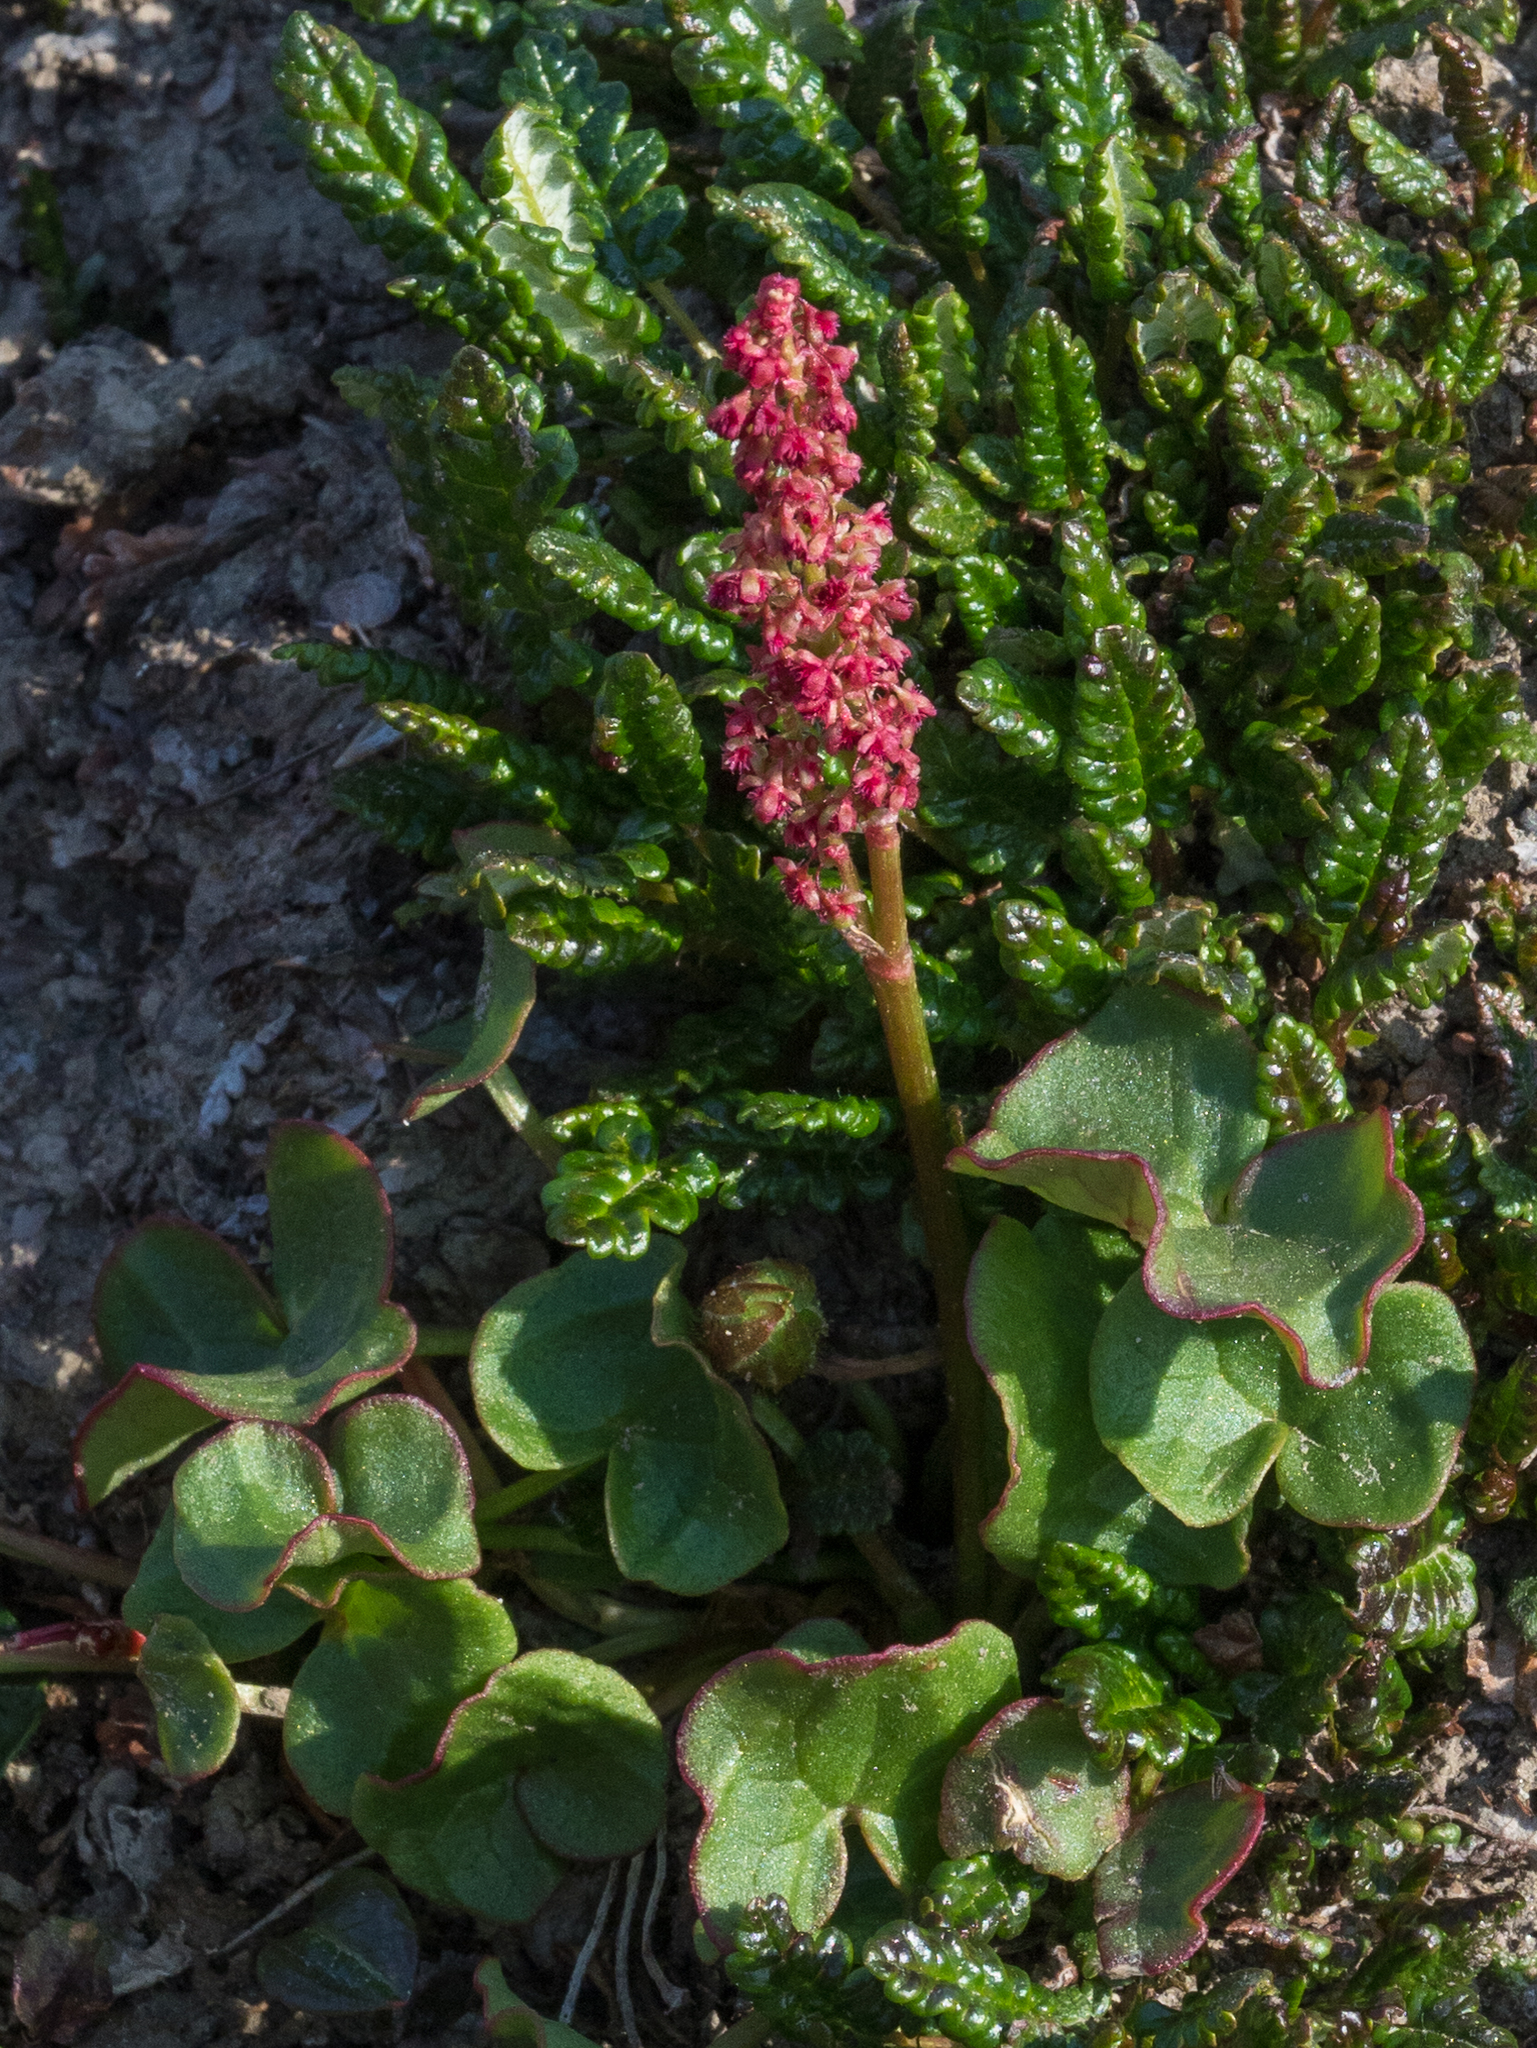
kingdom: Plantae
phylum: Tracheophyta
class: Magnoliopsida
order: Caryophyllales
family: Polygonaceae
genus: Oxyria
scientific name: Oxyria digyna
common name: Alpine mountain-sorrel
